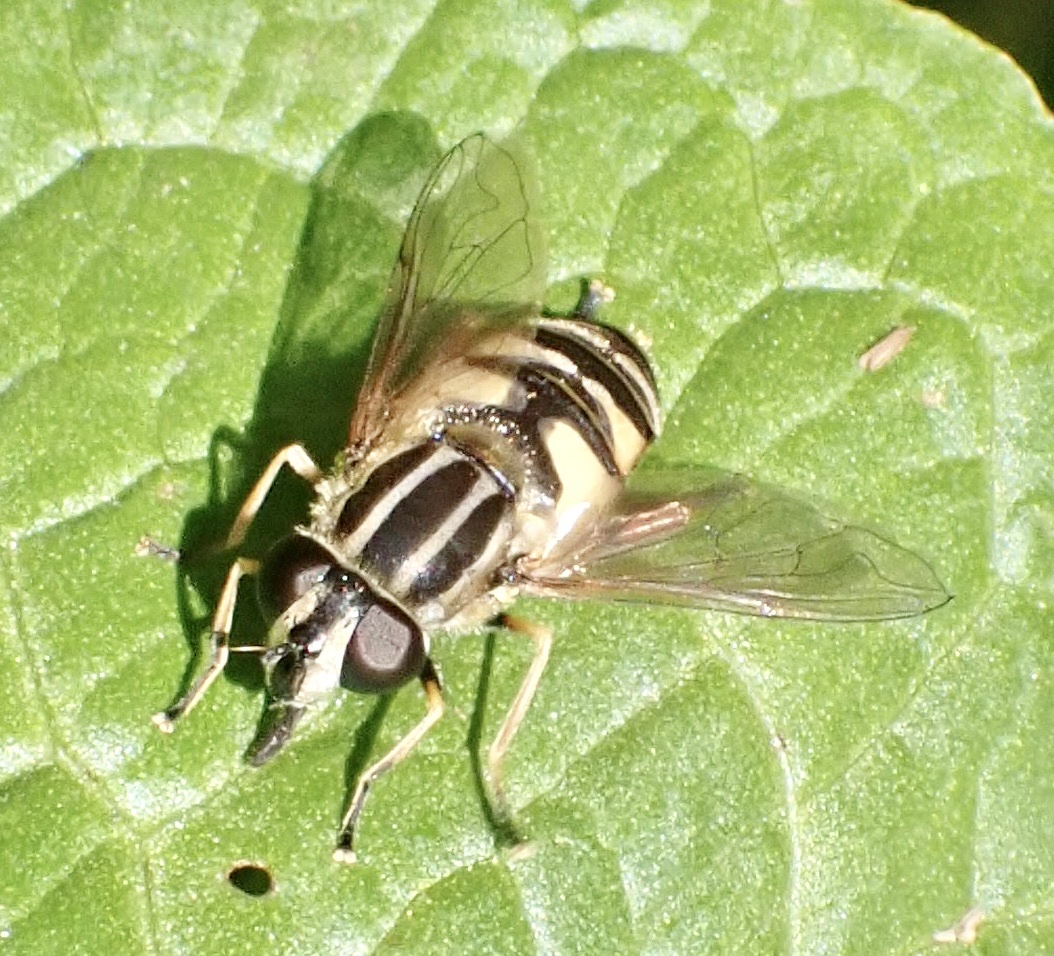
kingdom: Animalia
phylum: Arthropoda
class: Insecta
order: Diptera
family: Syrphidae
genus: Helophilus
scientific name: Helophilus pendulus
